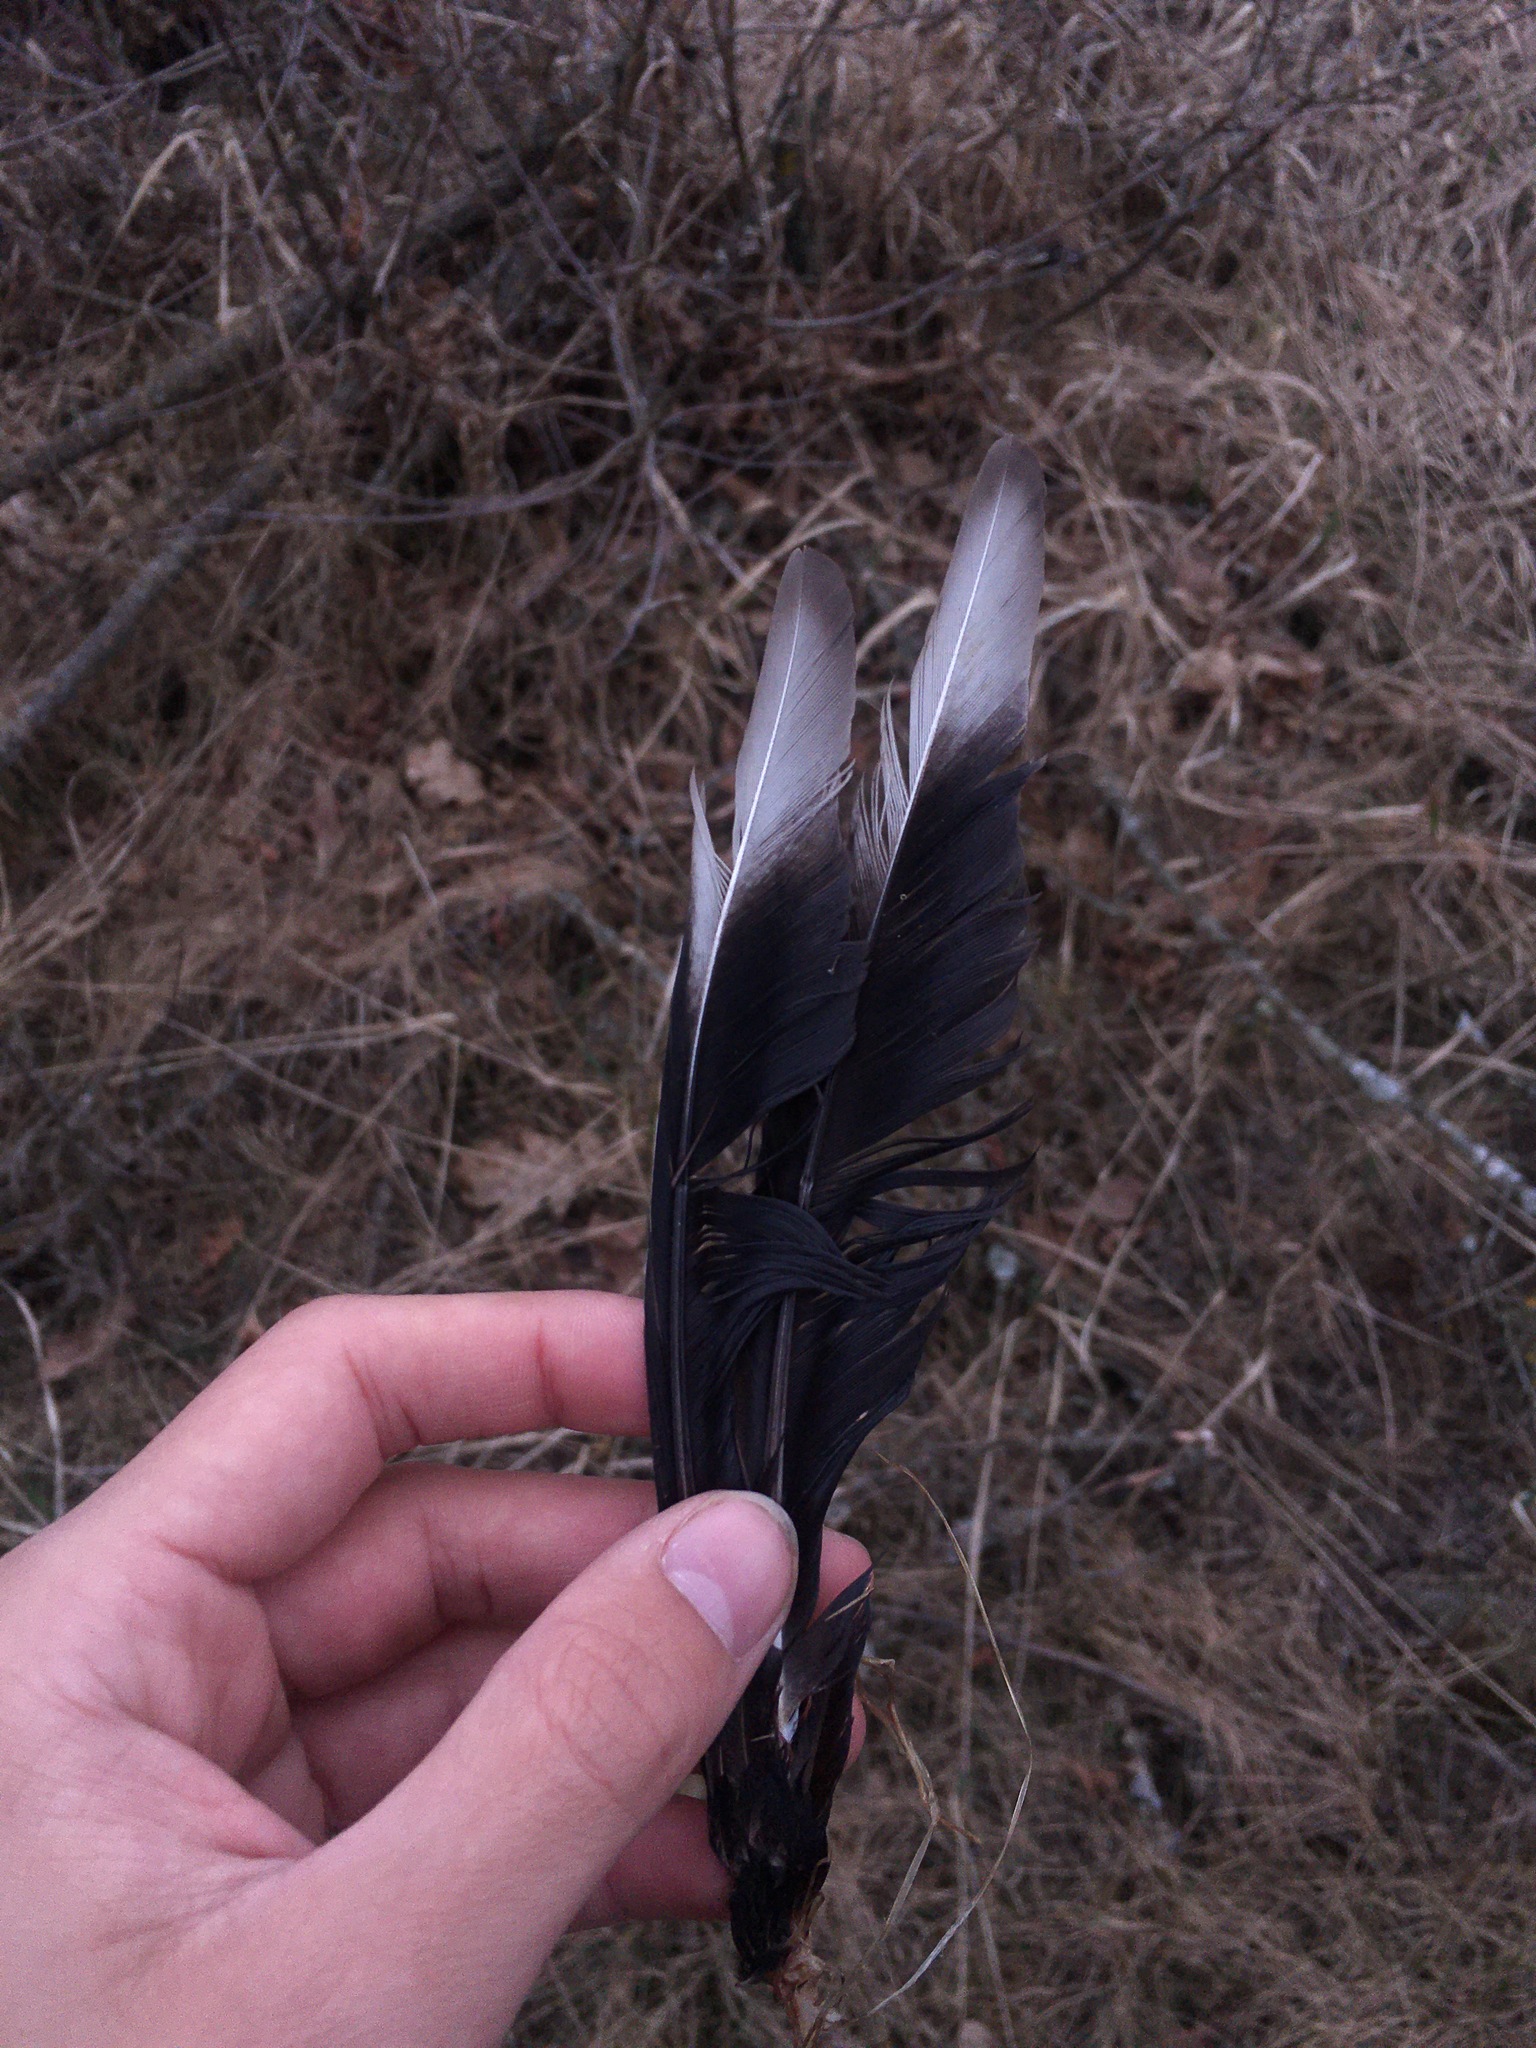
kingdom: Animalia
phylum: Chordata
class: Aves
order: Charadriiformes
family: Charadriidae
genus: Vanellus
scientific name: Vanellus vanellus
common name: Northern lapwing
